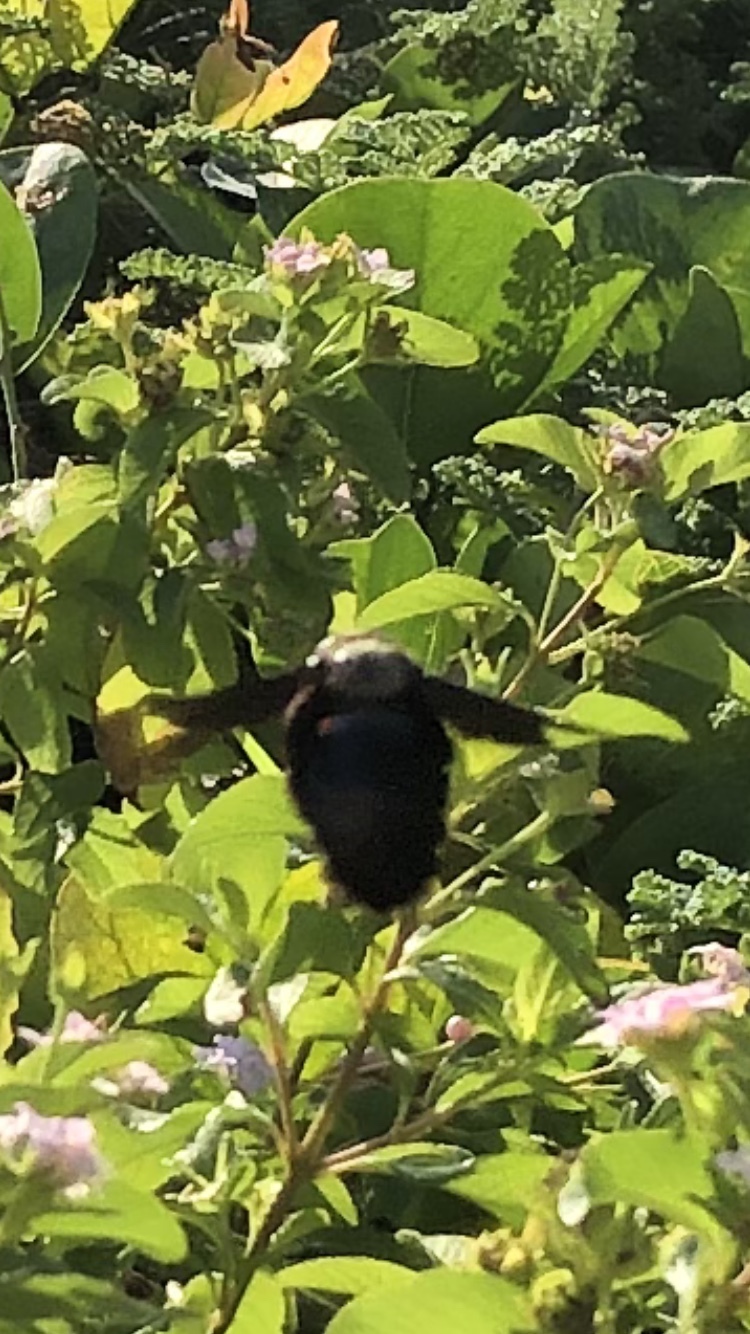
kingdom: Animalia
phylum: Arthropoda
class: Insecta
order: Hymenoptera
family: Apidae
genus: Xylocopa
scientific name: Xylocopa nautlana
